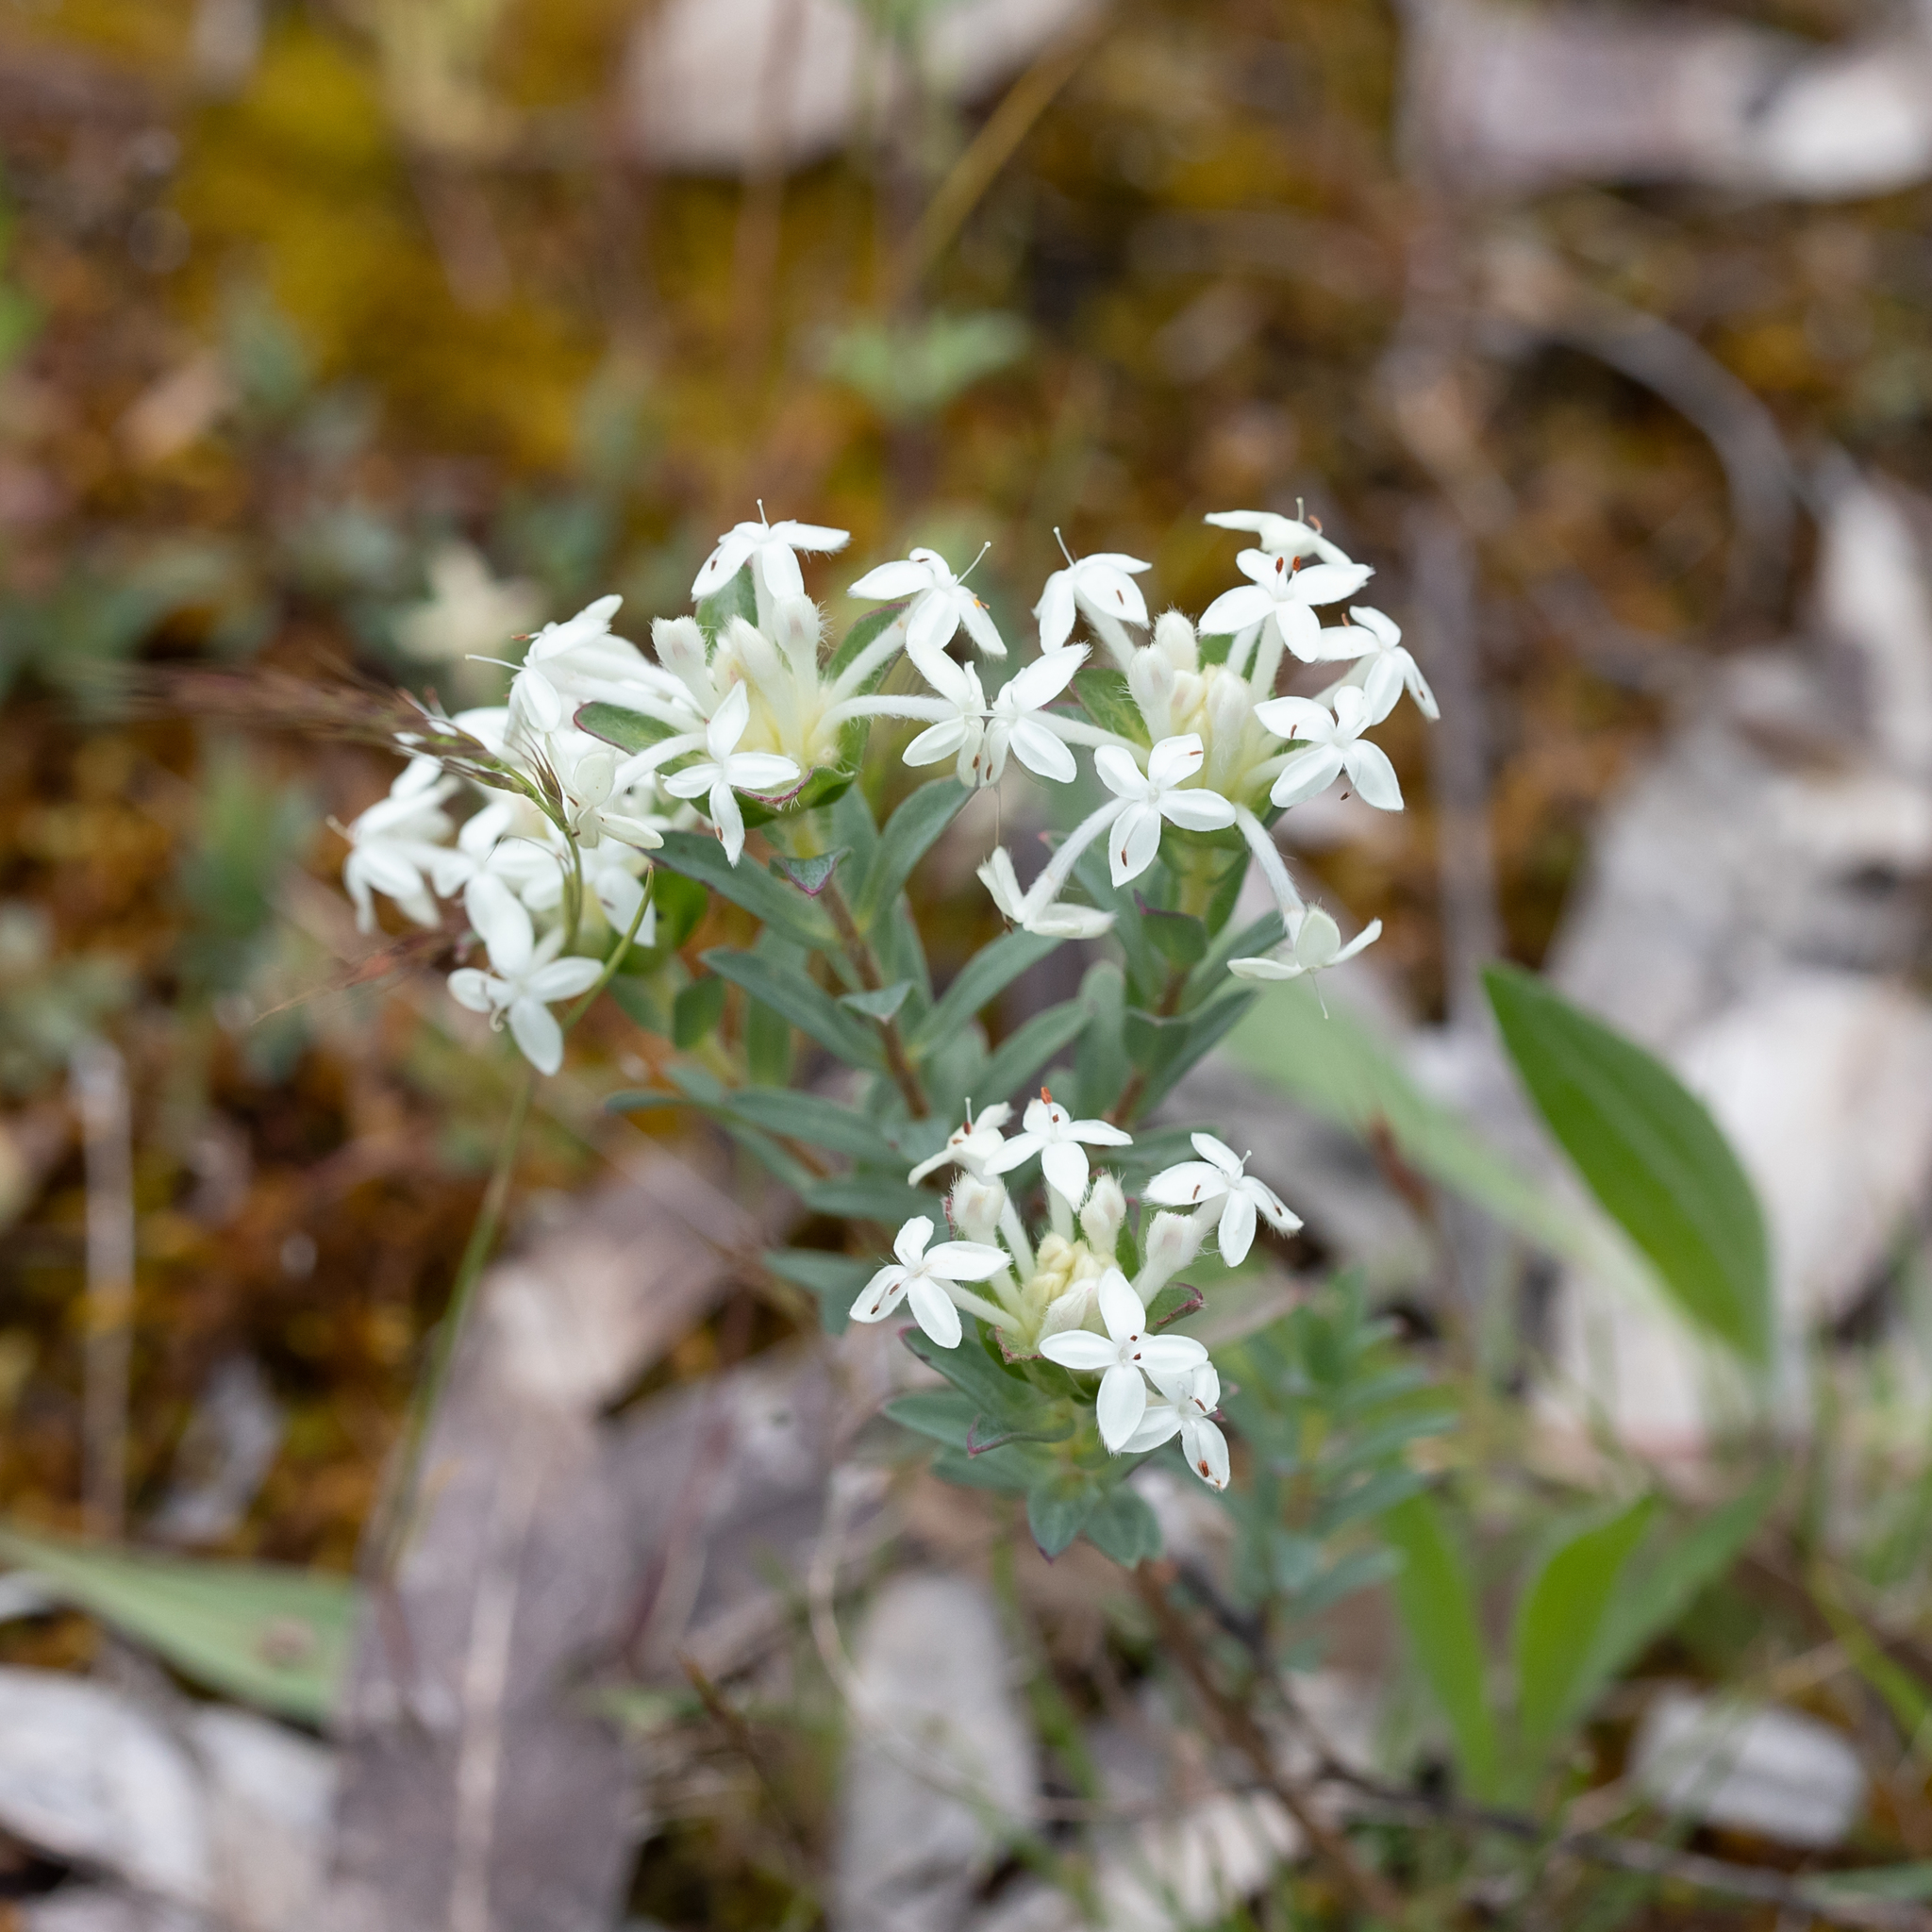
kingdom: Plantae
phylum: Tracheophyta
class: Magnoliopsida
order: Malvales
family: Thymelaeaceae
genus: Pimelea
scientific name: Pimelea humilis
